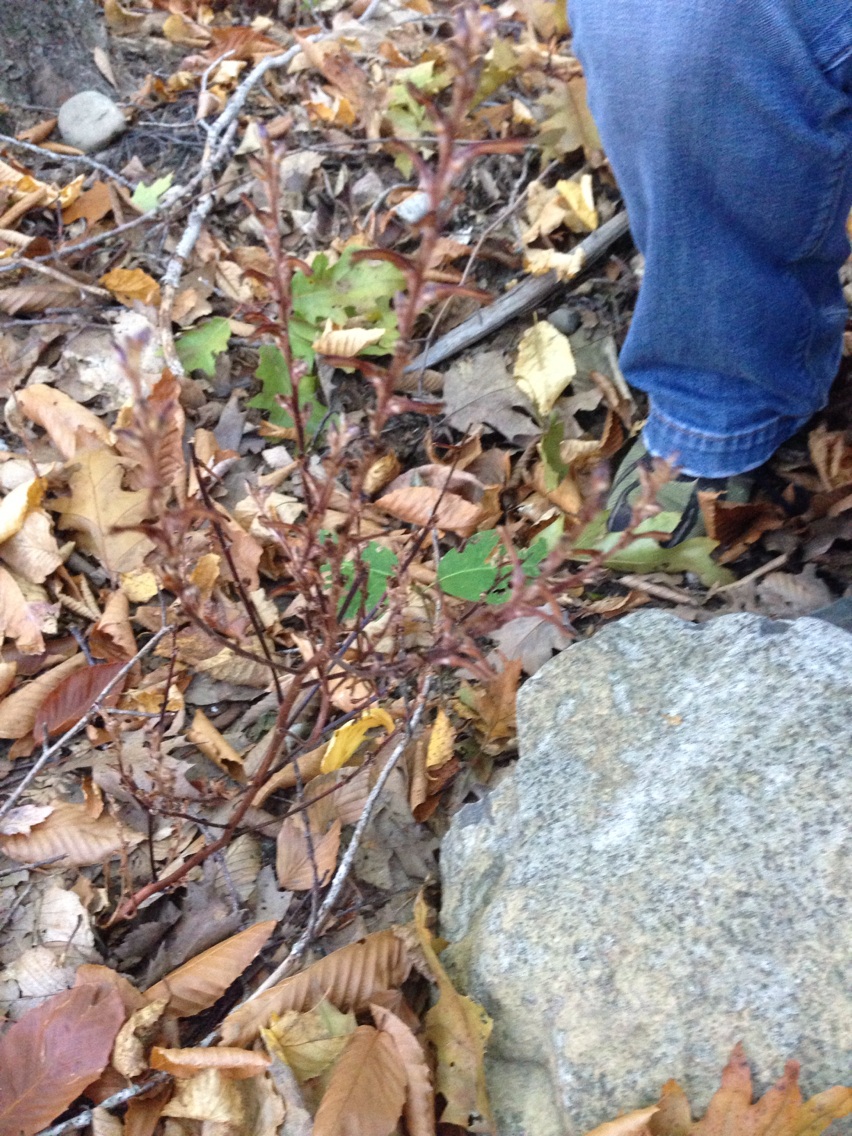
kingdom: Plantae
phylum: Tracheophyta
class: Magnoliopsida
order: Lamiales
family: Orobanchaceae
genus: Epifagus
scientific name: Epifagus virginiana
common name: Beechdrops
